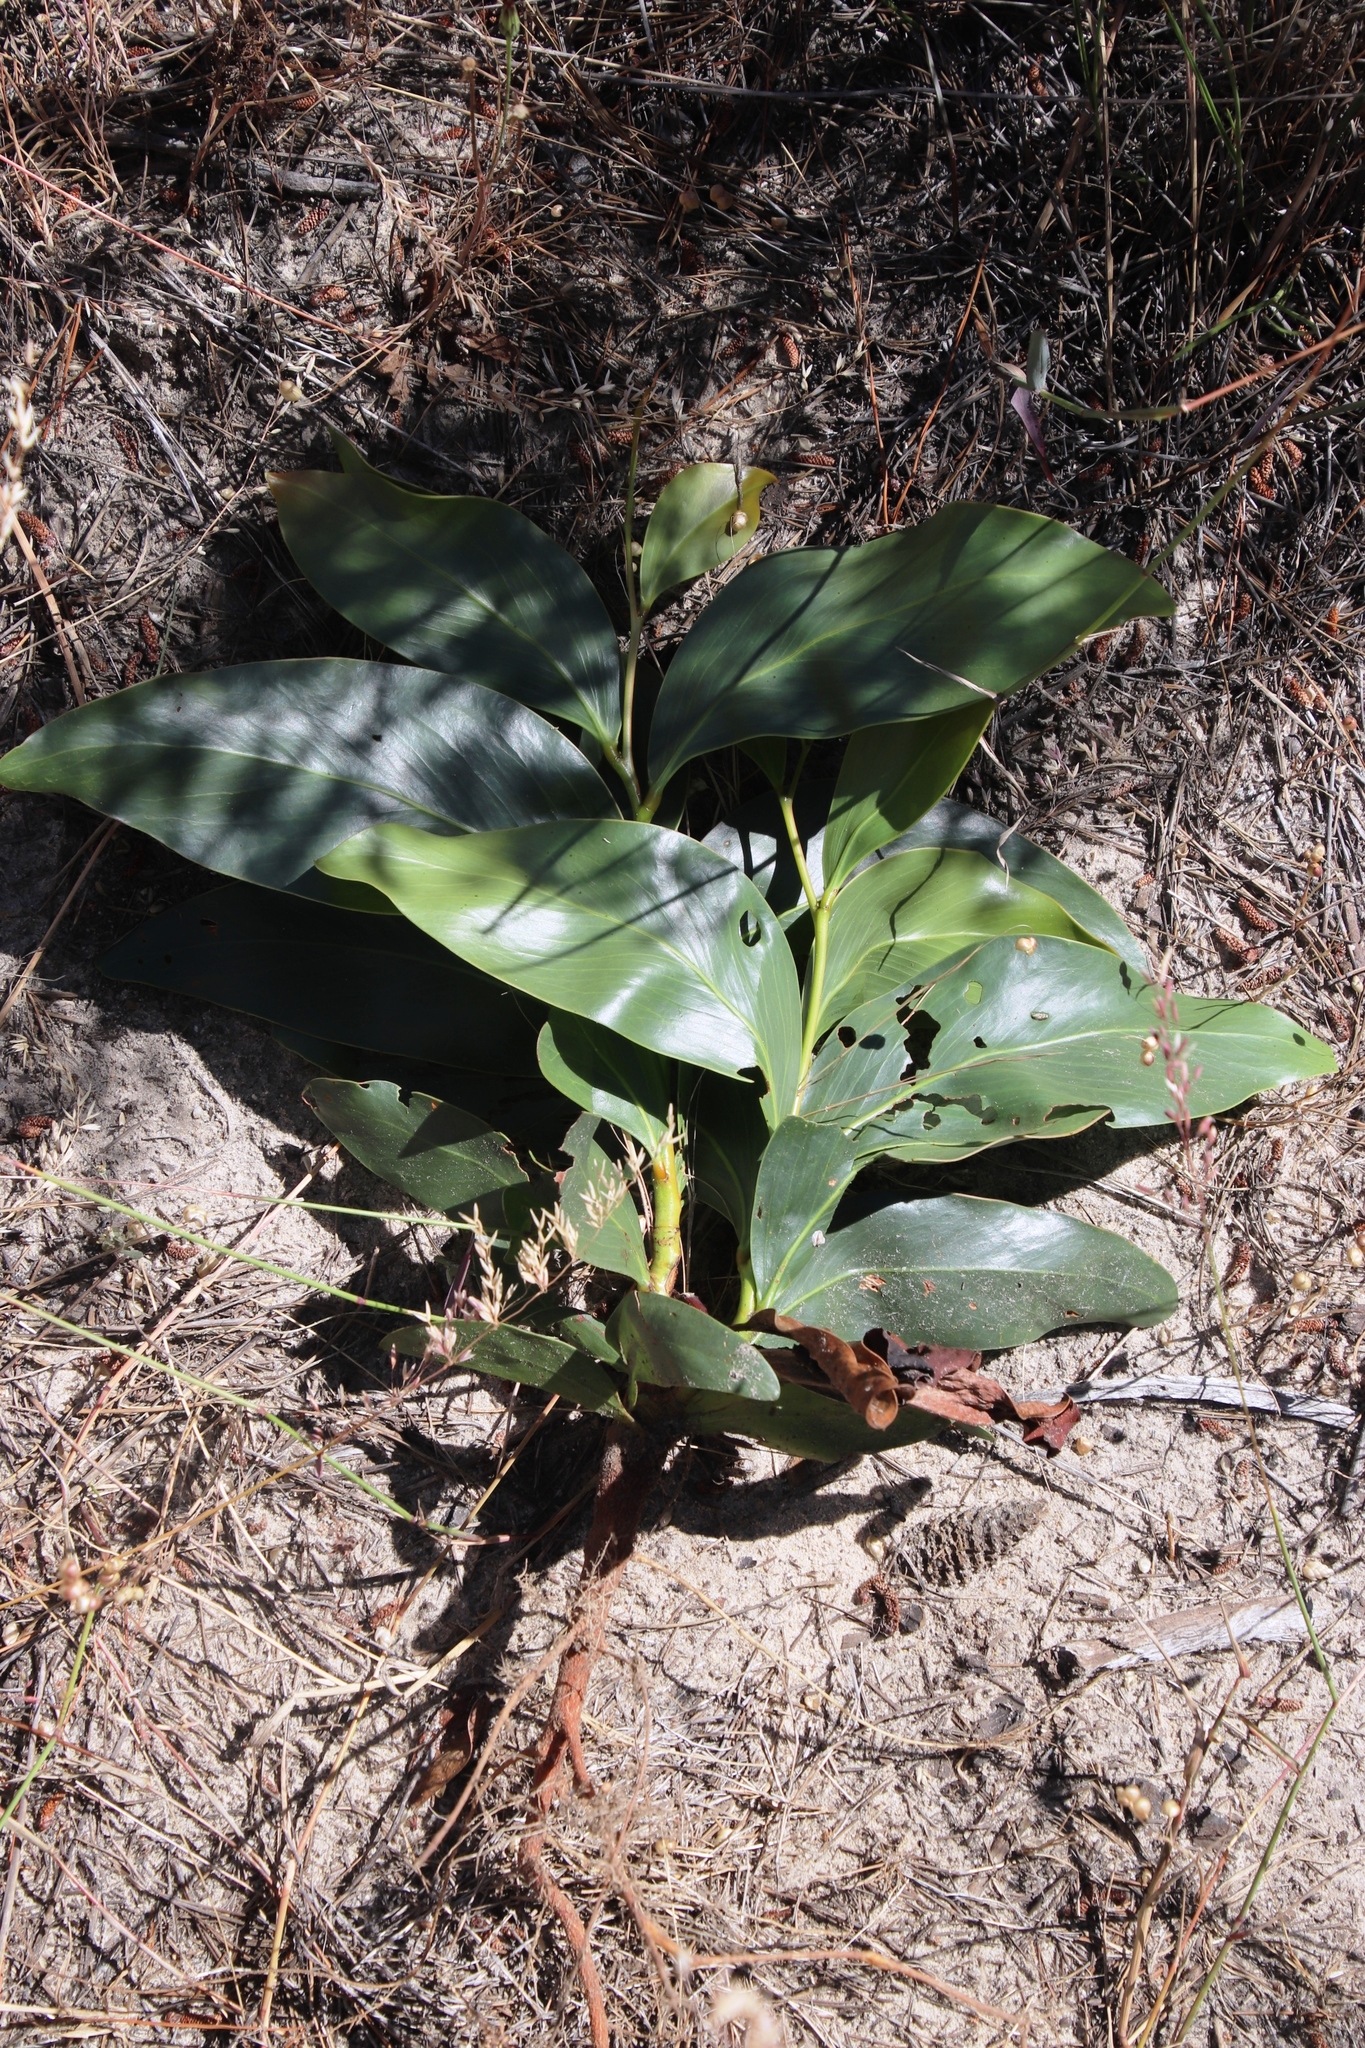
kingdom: Plantae
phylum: Tracheophyta
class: Magnoliopsida
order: Fabales
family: Fabaceae
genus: Acacia
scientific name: Acacia pycnantha
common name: Golden wattle
